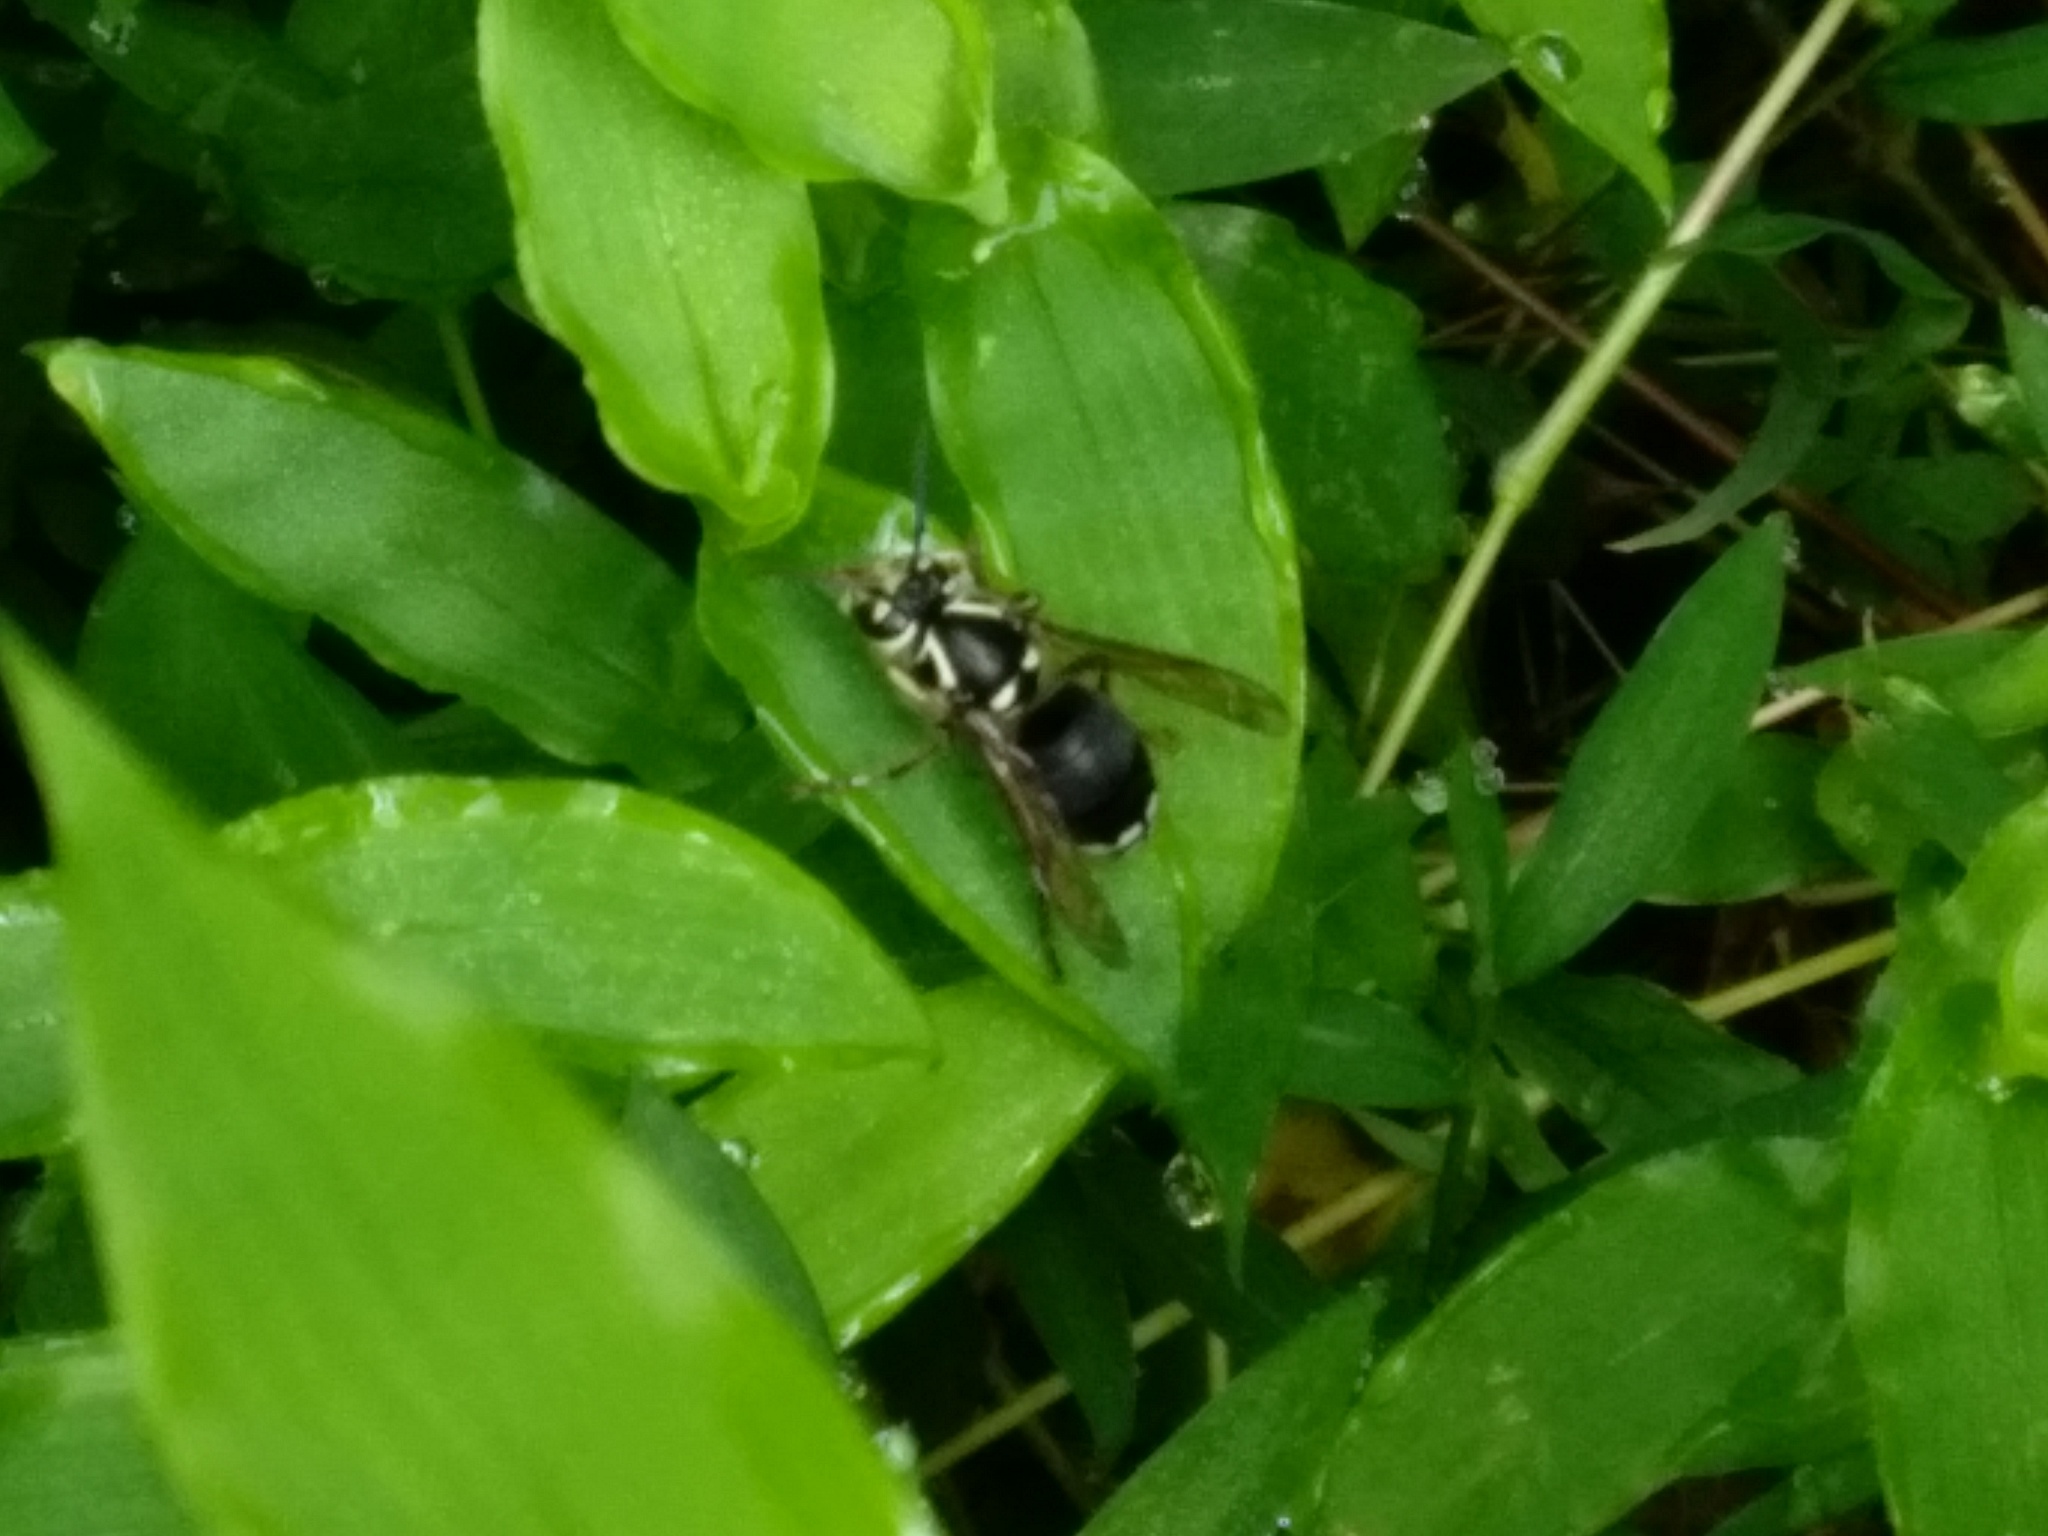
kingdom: Animalia
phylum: Arthropoda
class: Insecta
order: Hymenoptera
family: Vespidae
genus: Dolichovespula
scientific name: Dolichovespula maculata
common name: Bald-faced hornet
